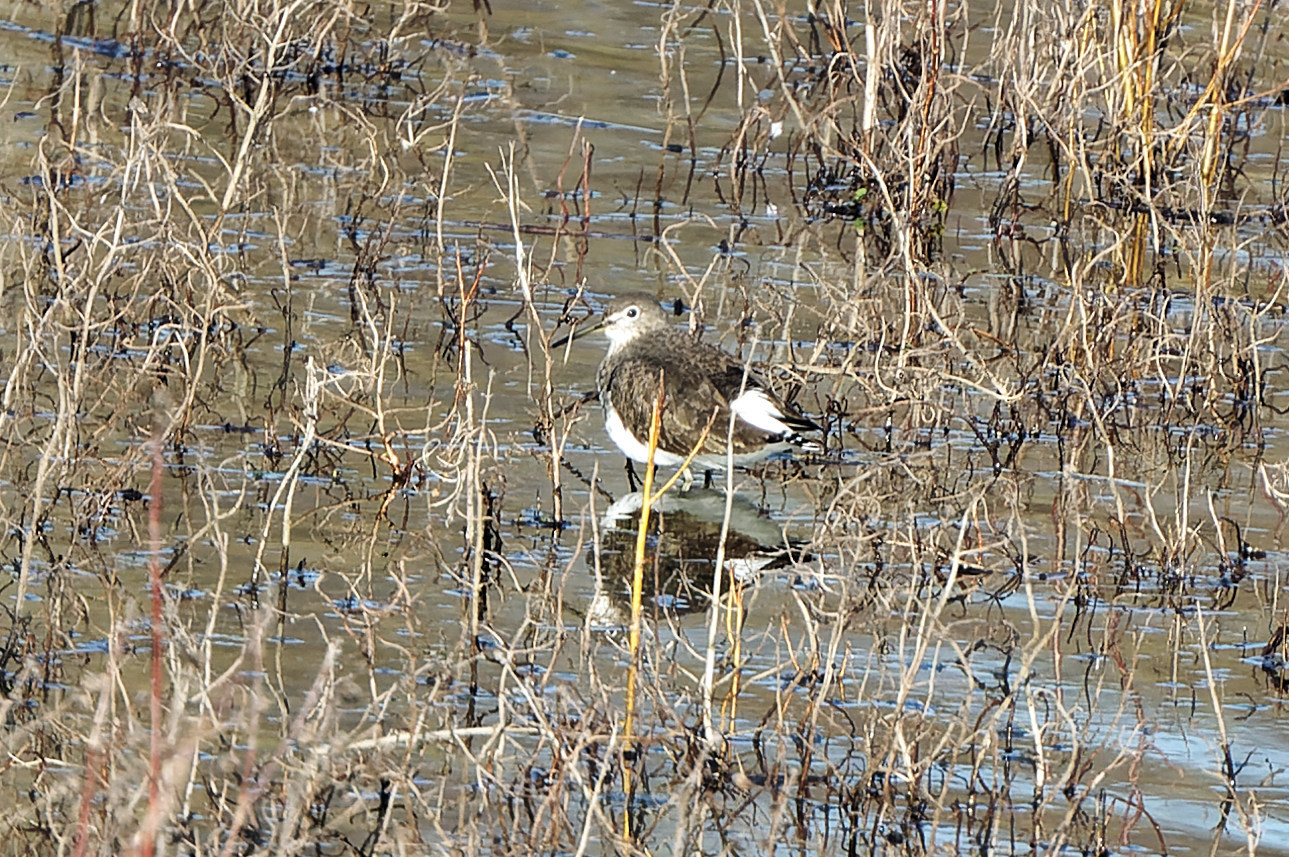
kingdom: Animalia
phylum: Chordata
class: Aves
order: Charadriiformes
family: Scolopacidae
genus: Tringa
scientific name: Tringa ochropus
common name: Green sandpiper
